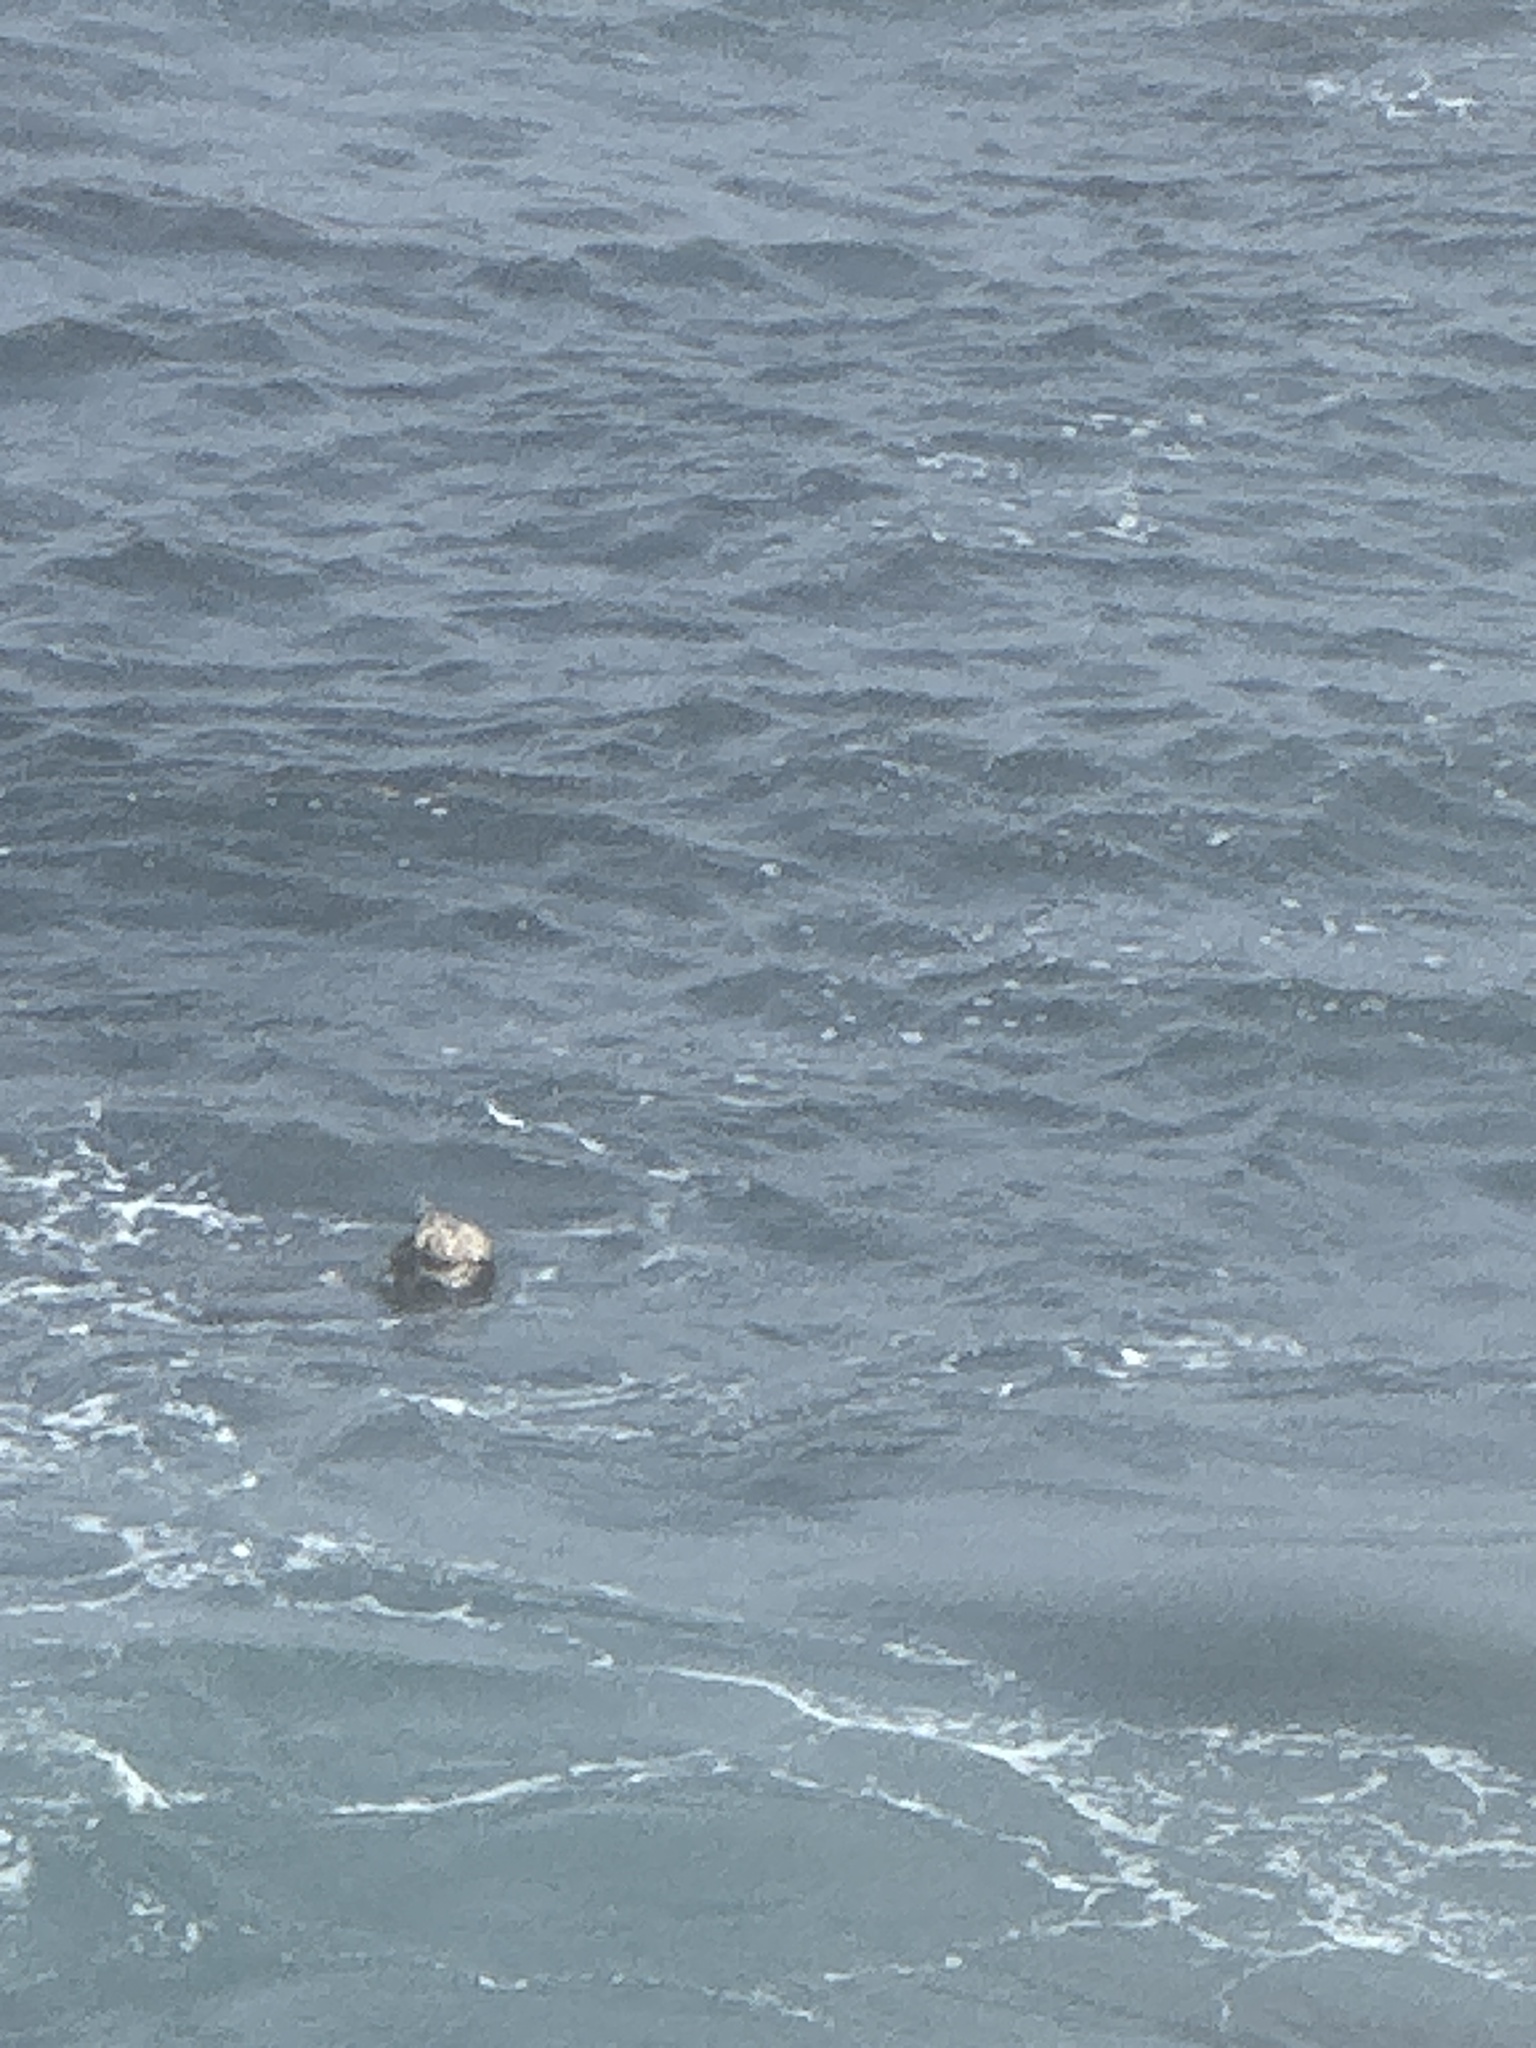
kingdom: Animalia
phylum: Chordata
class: Mammalia
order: Carnivora
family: Mustelidae
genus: Enhydra
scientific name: Enhydra lutris
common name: Sea otter
